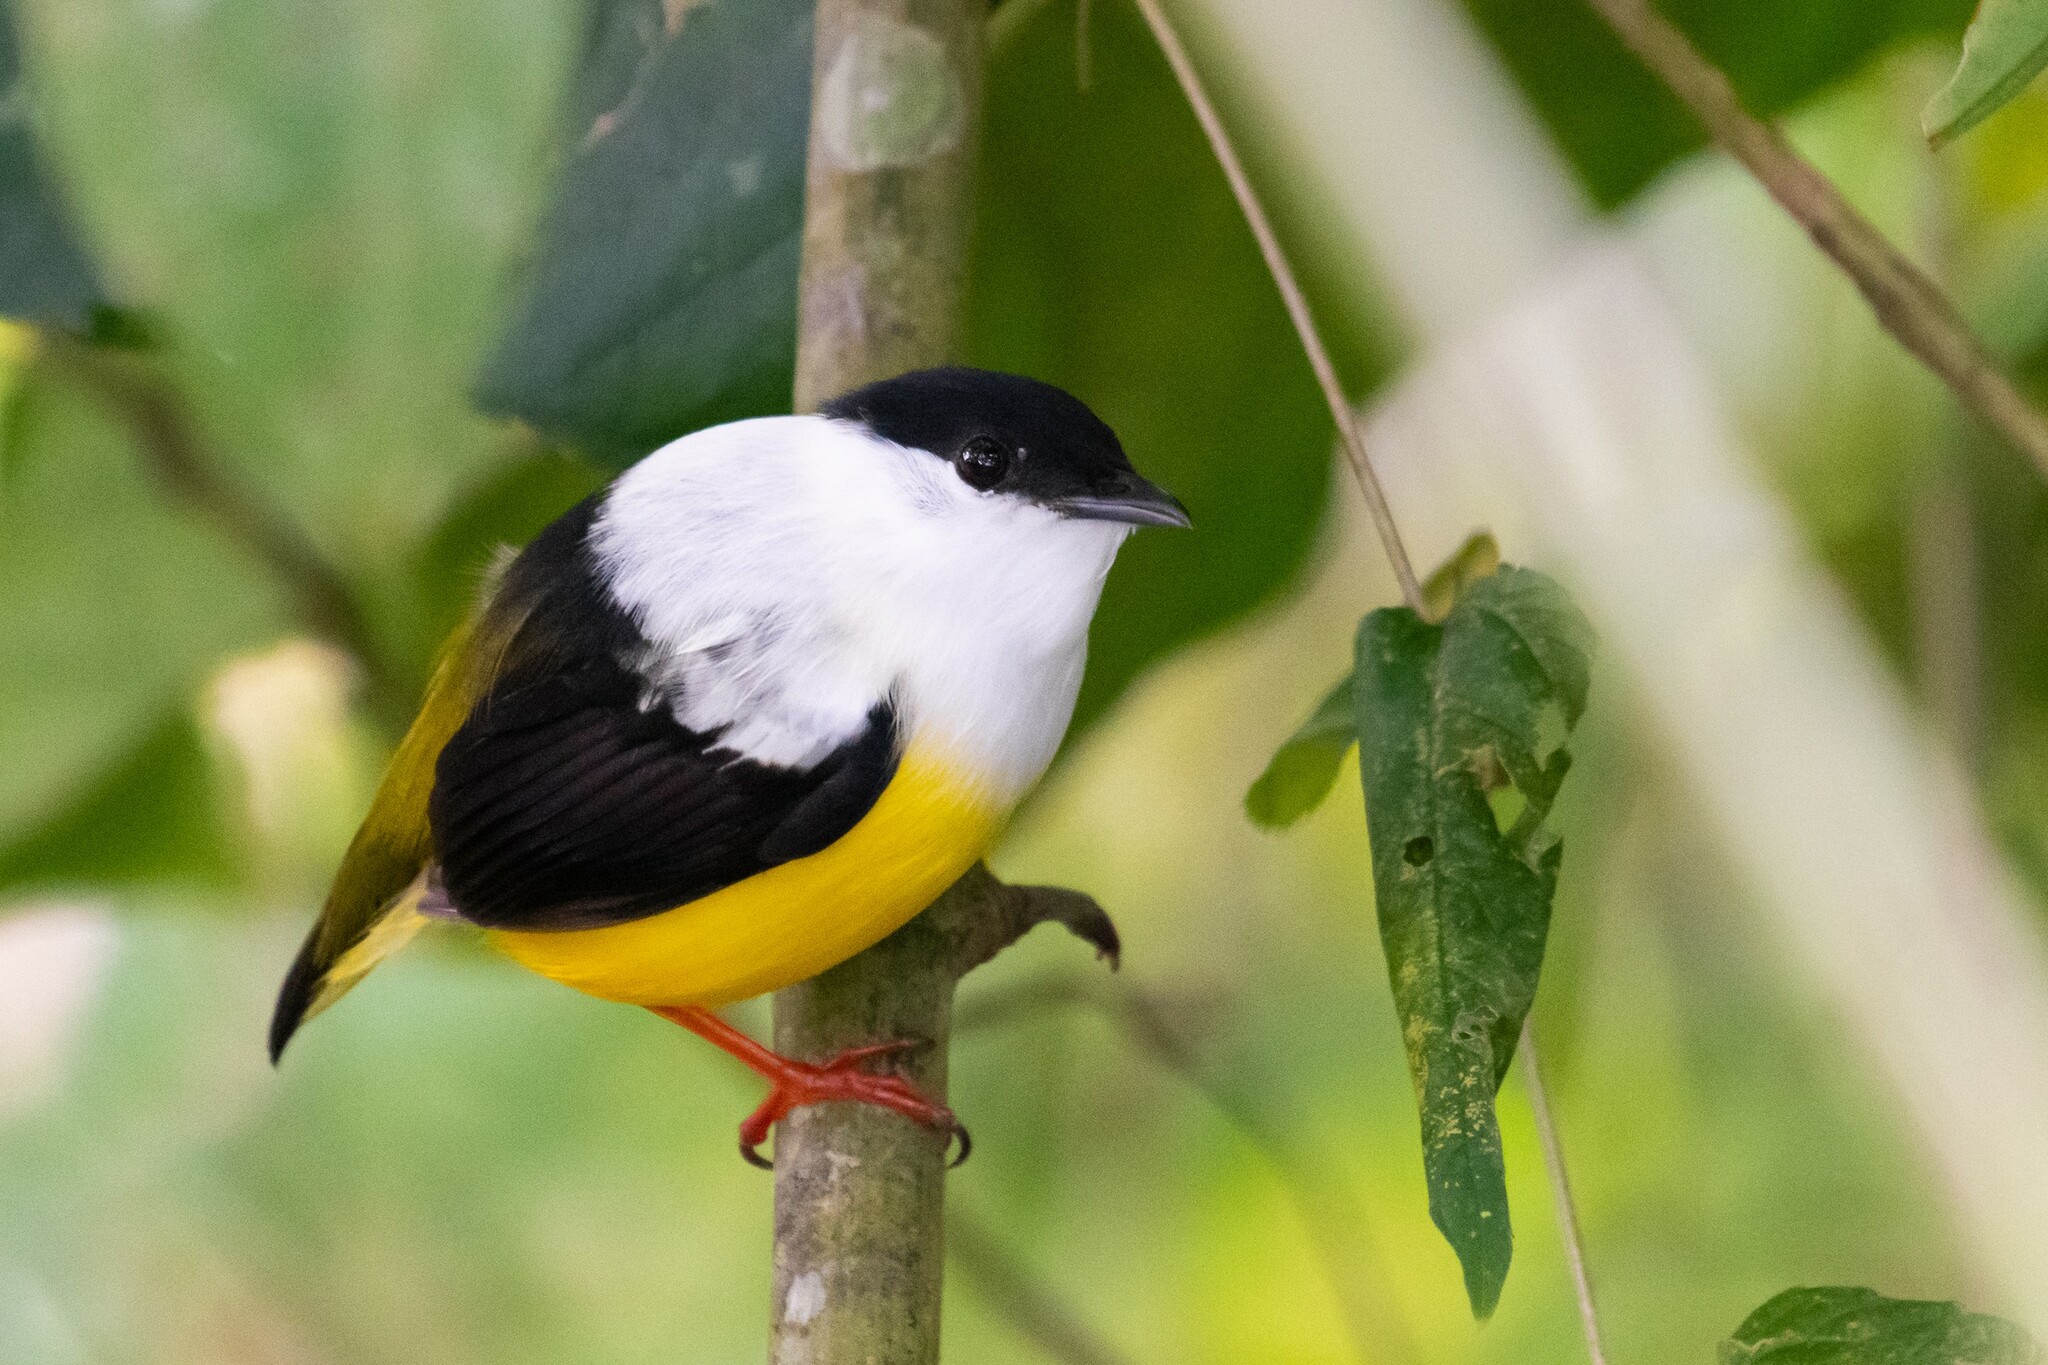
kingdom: Animalia
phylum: Chordata
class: Aves
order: Passeriformes
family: Pipridae
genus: Manacus
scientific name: Manacus candei
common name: White-collared manakin
